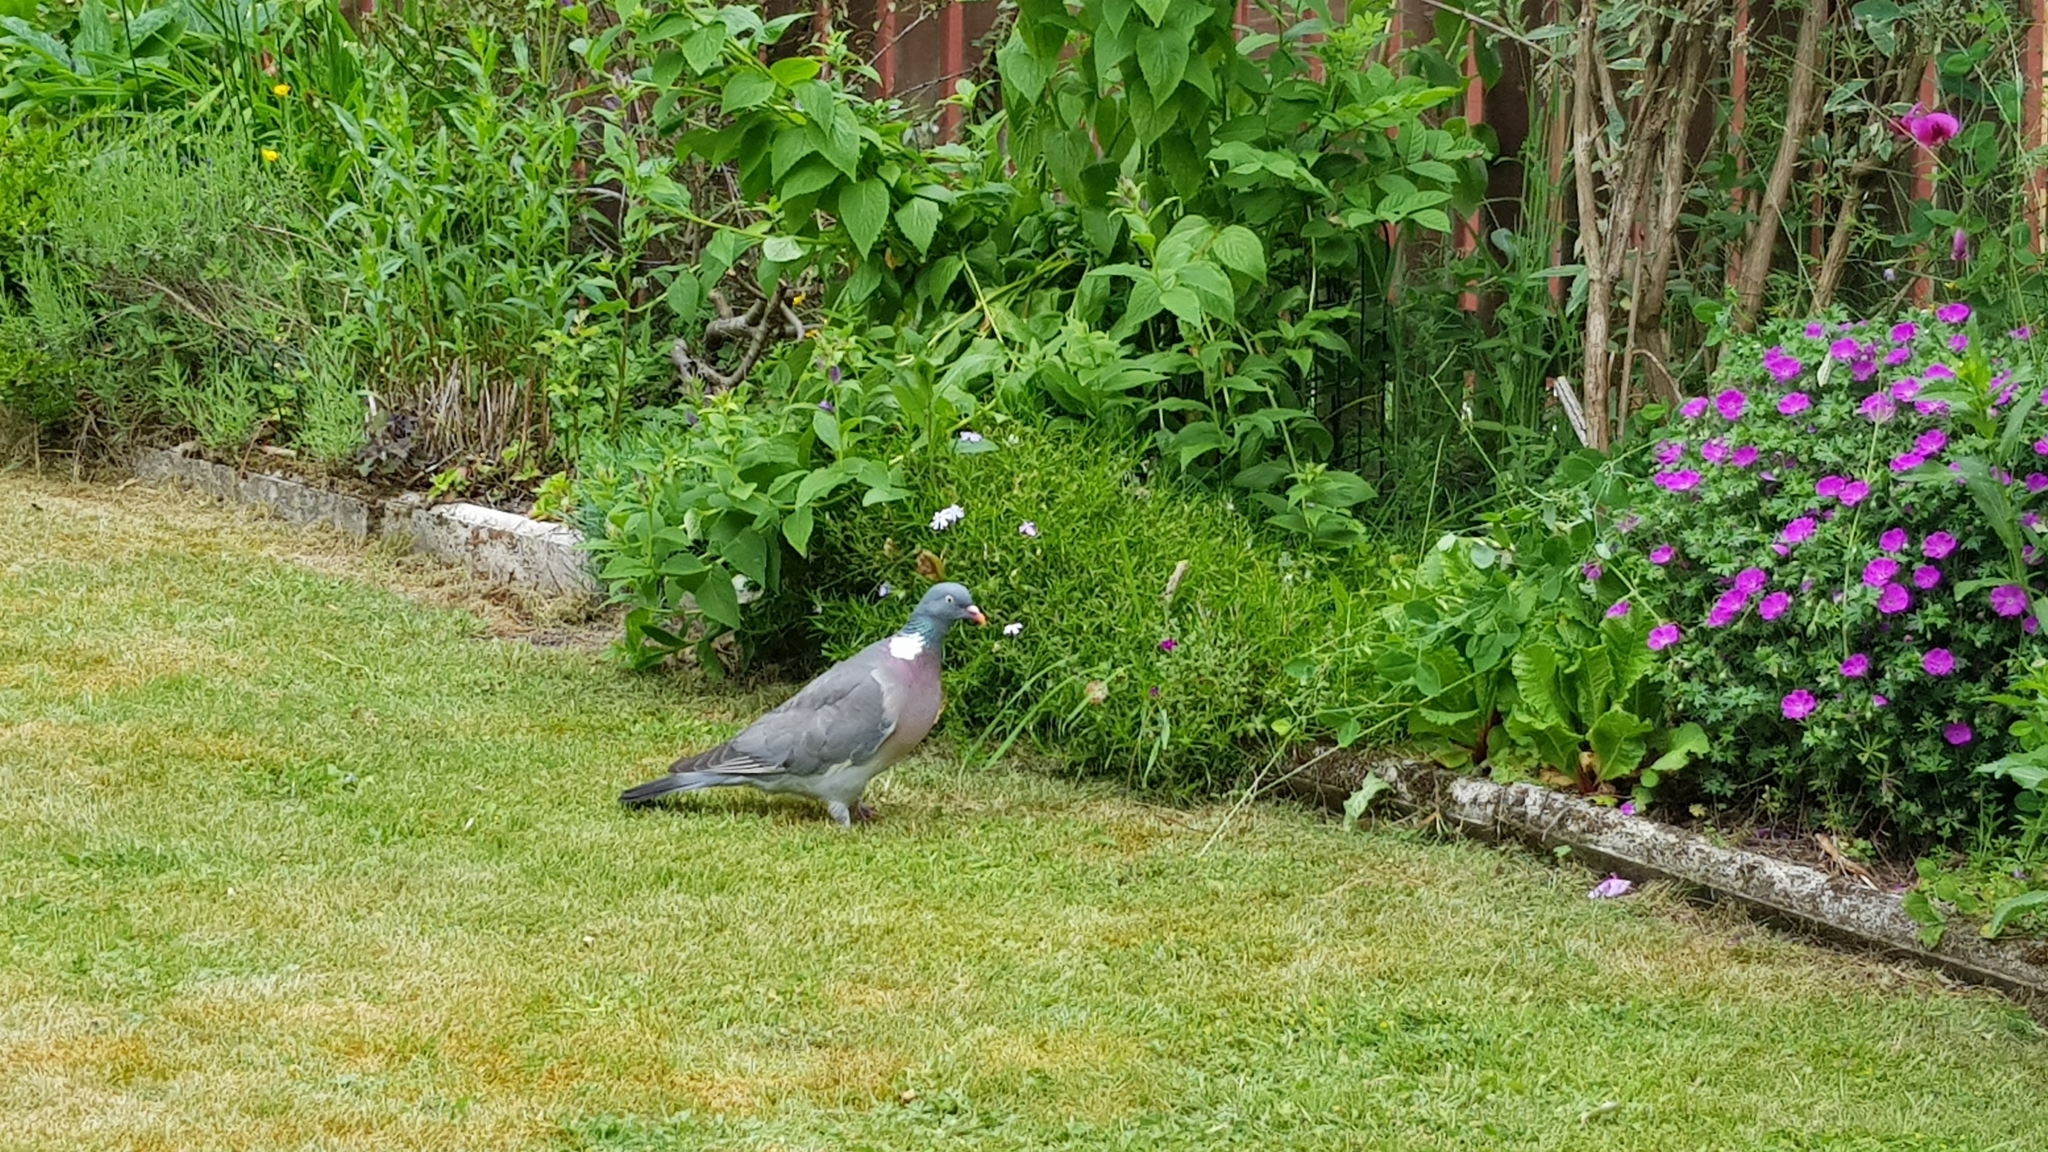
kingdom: Animalia
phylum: Chordata
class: Aves
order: Columbiformes
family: Columbidae
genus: Columba
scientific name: Columba palumbus
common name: Common wood pigeon
